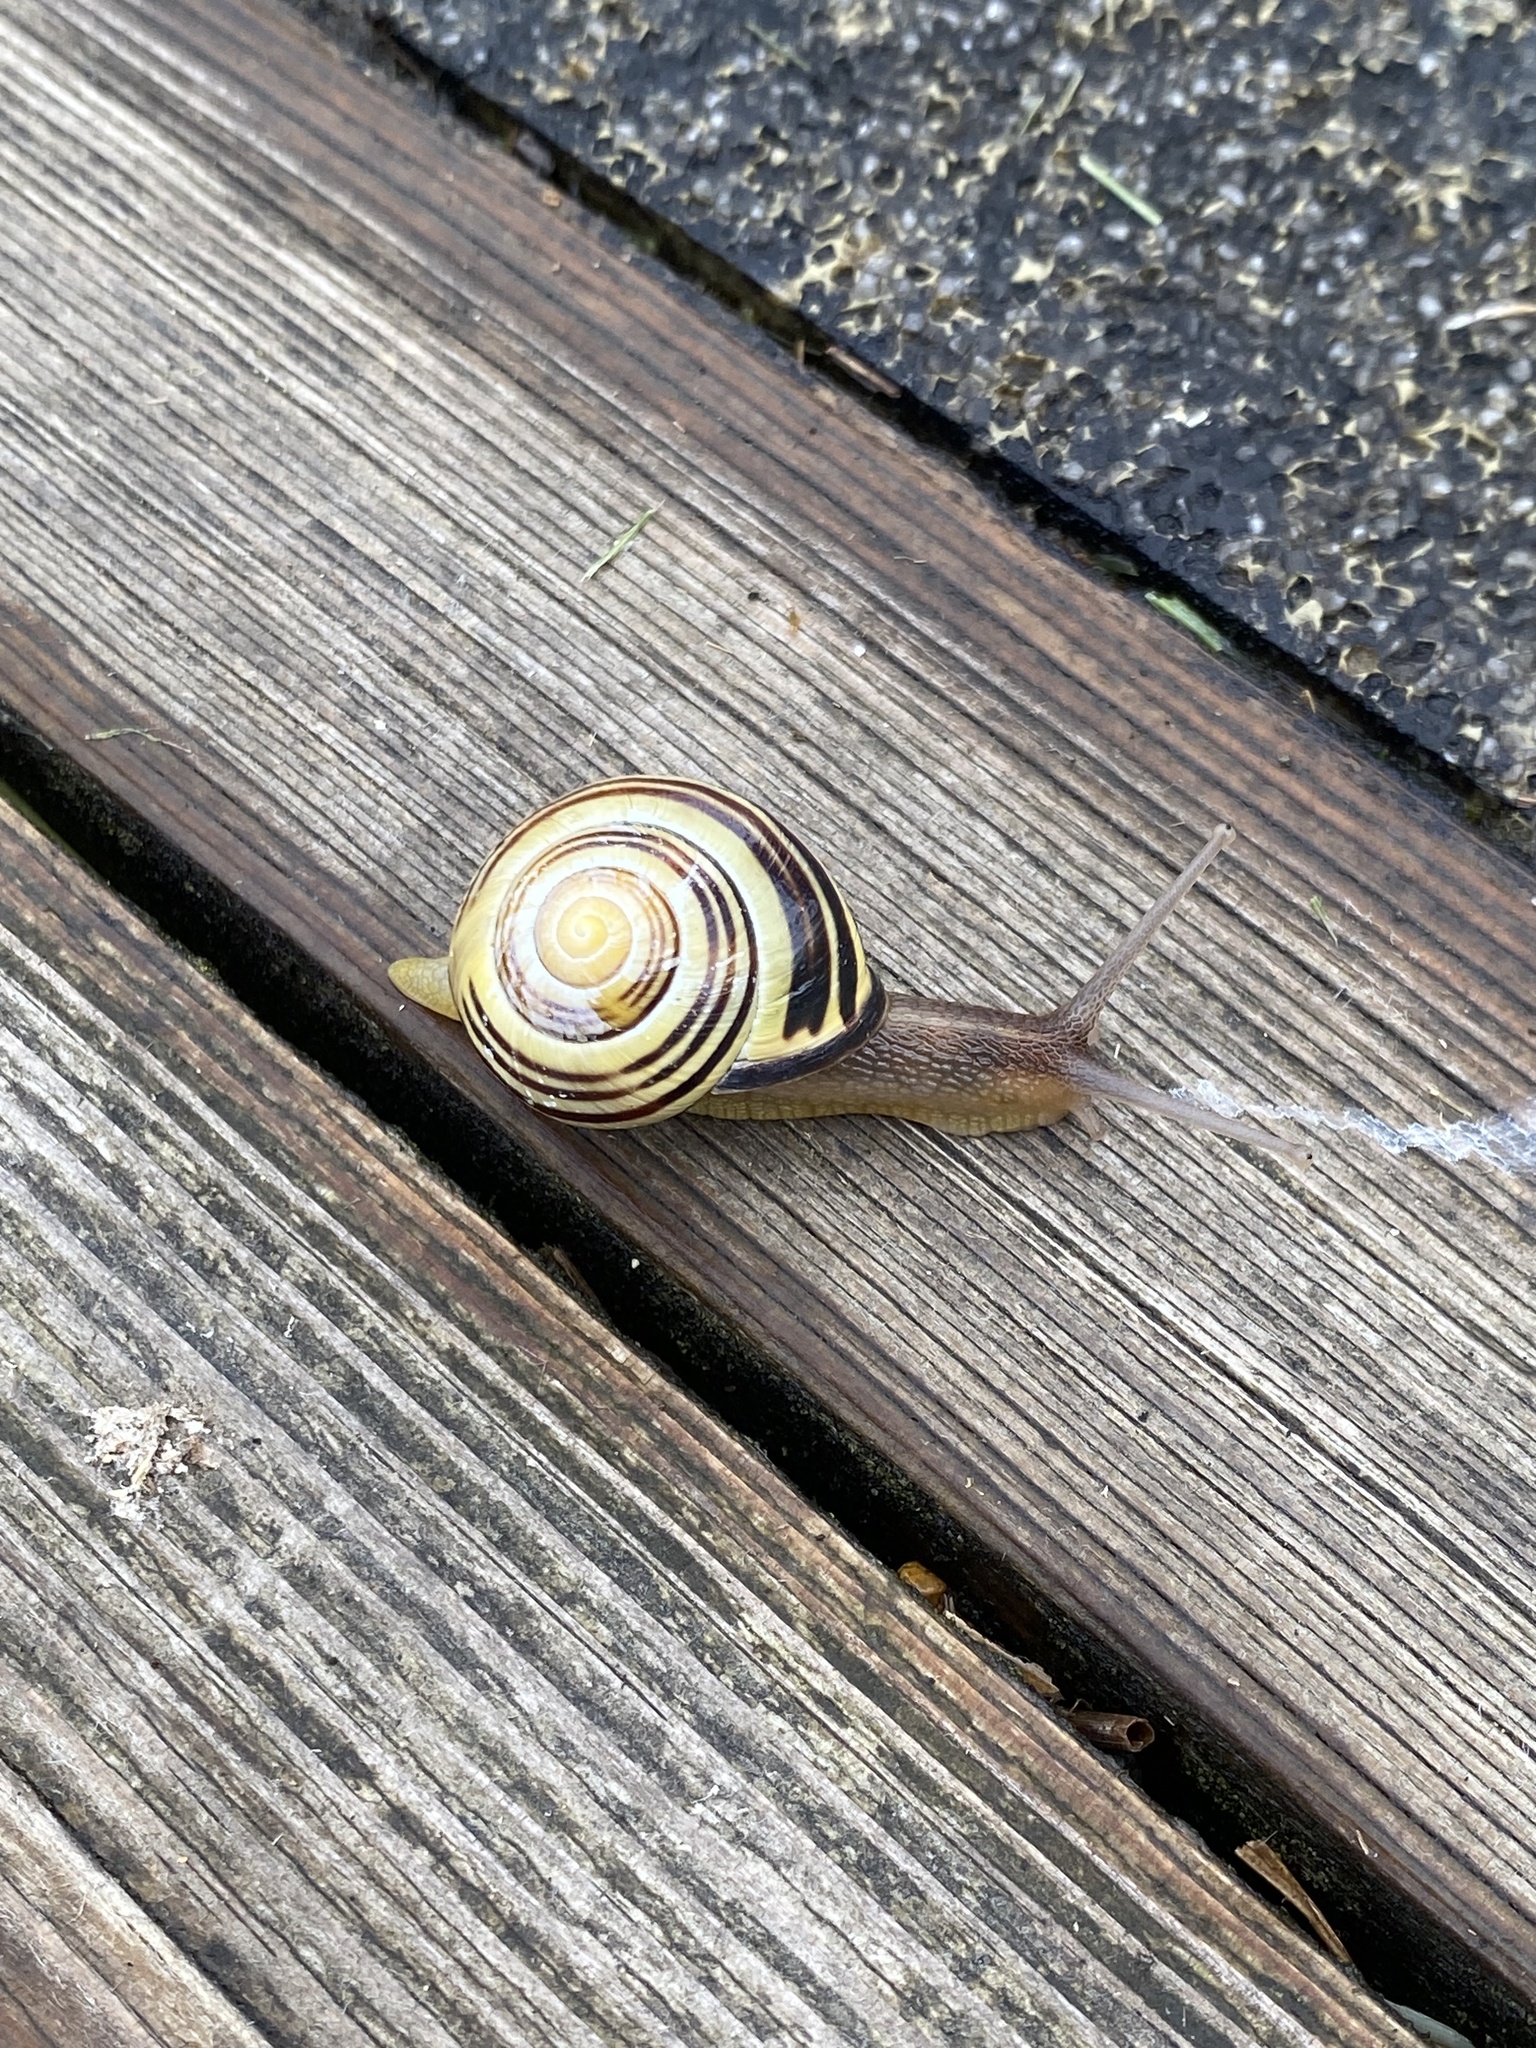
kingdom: Animalia
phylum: Mollusca
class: Gastropoda
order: Stylommatophora
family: Helicidae
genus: Cepaea
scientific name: Cepaea nemoralis
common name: Grovesnail
